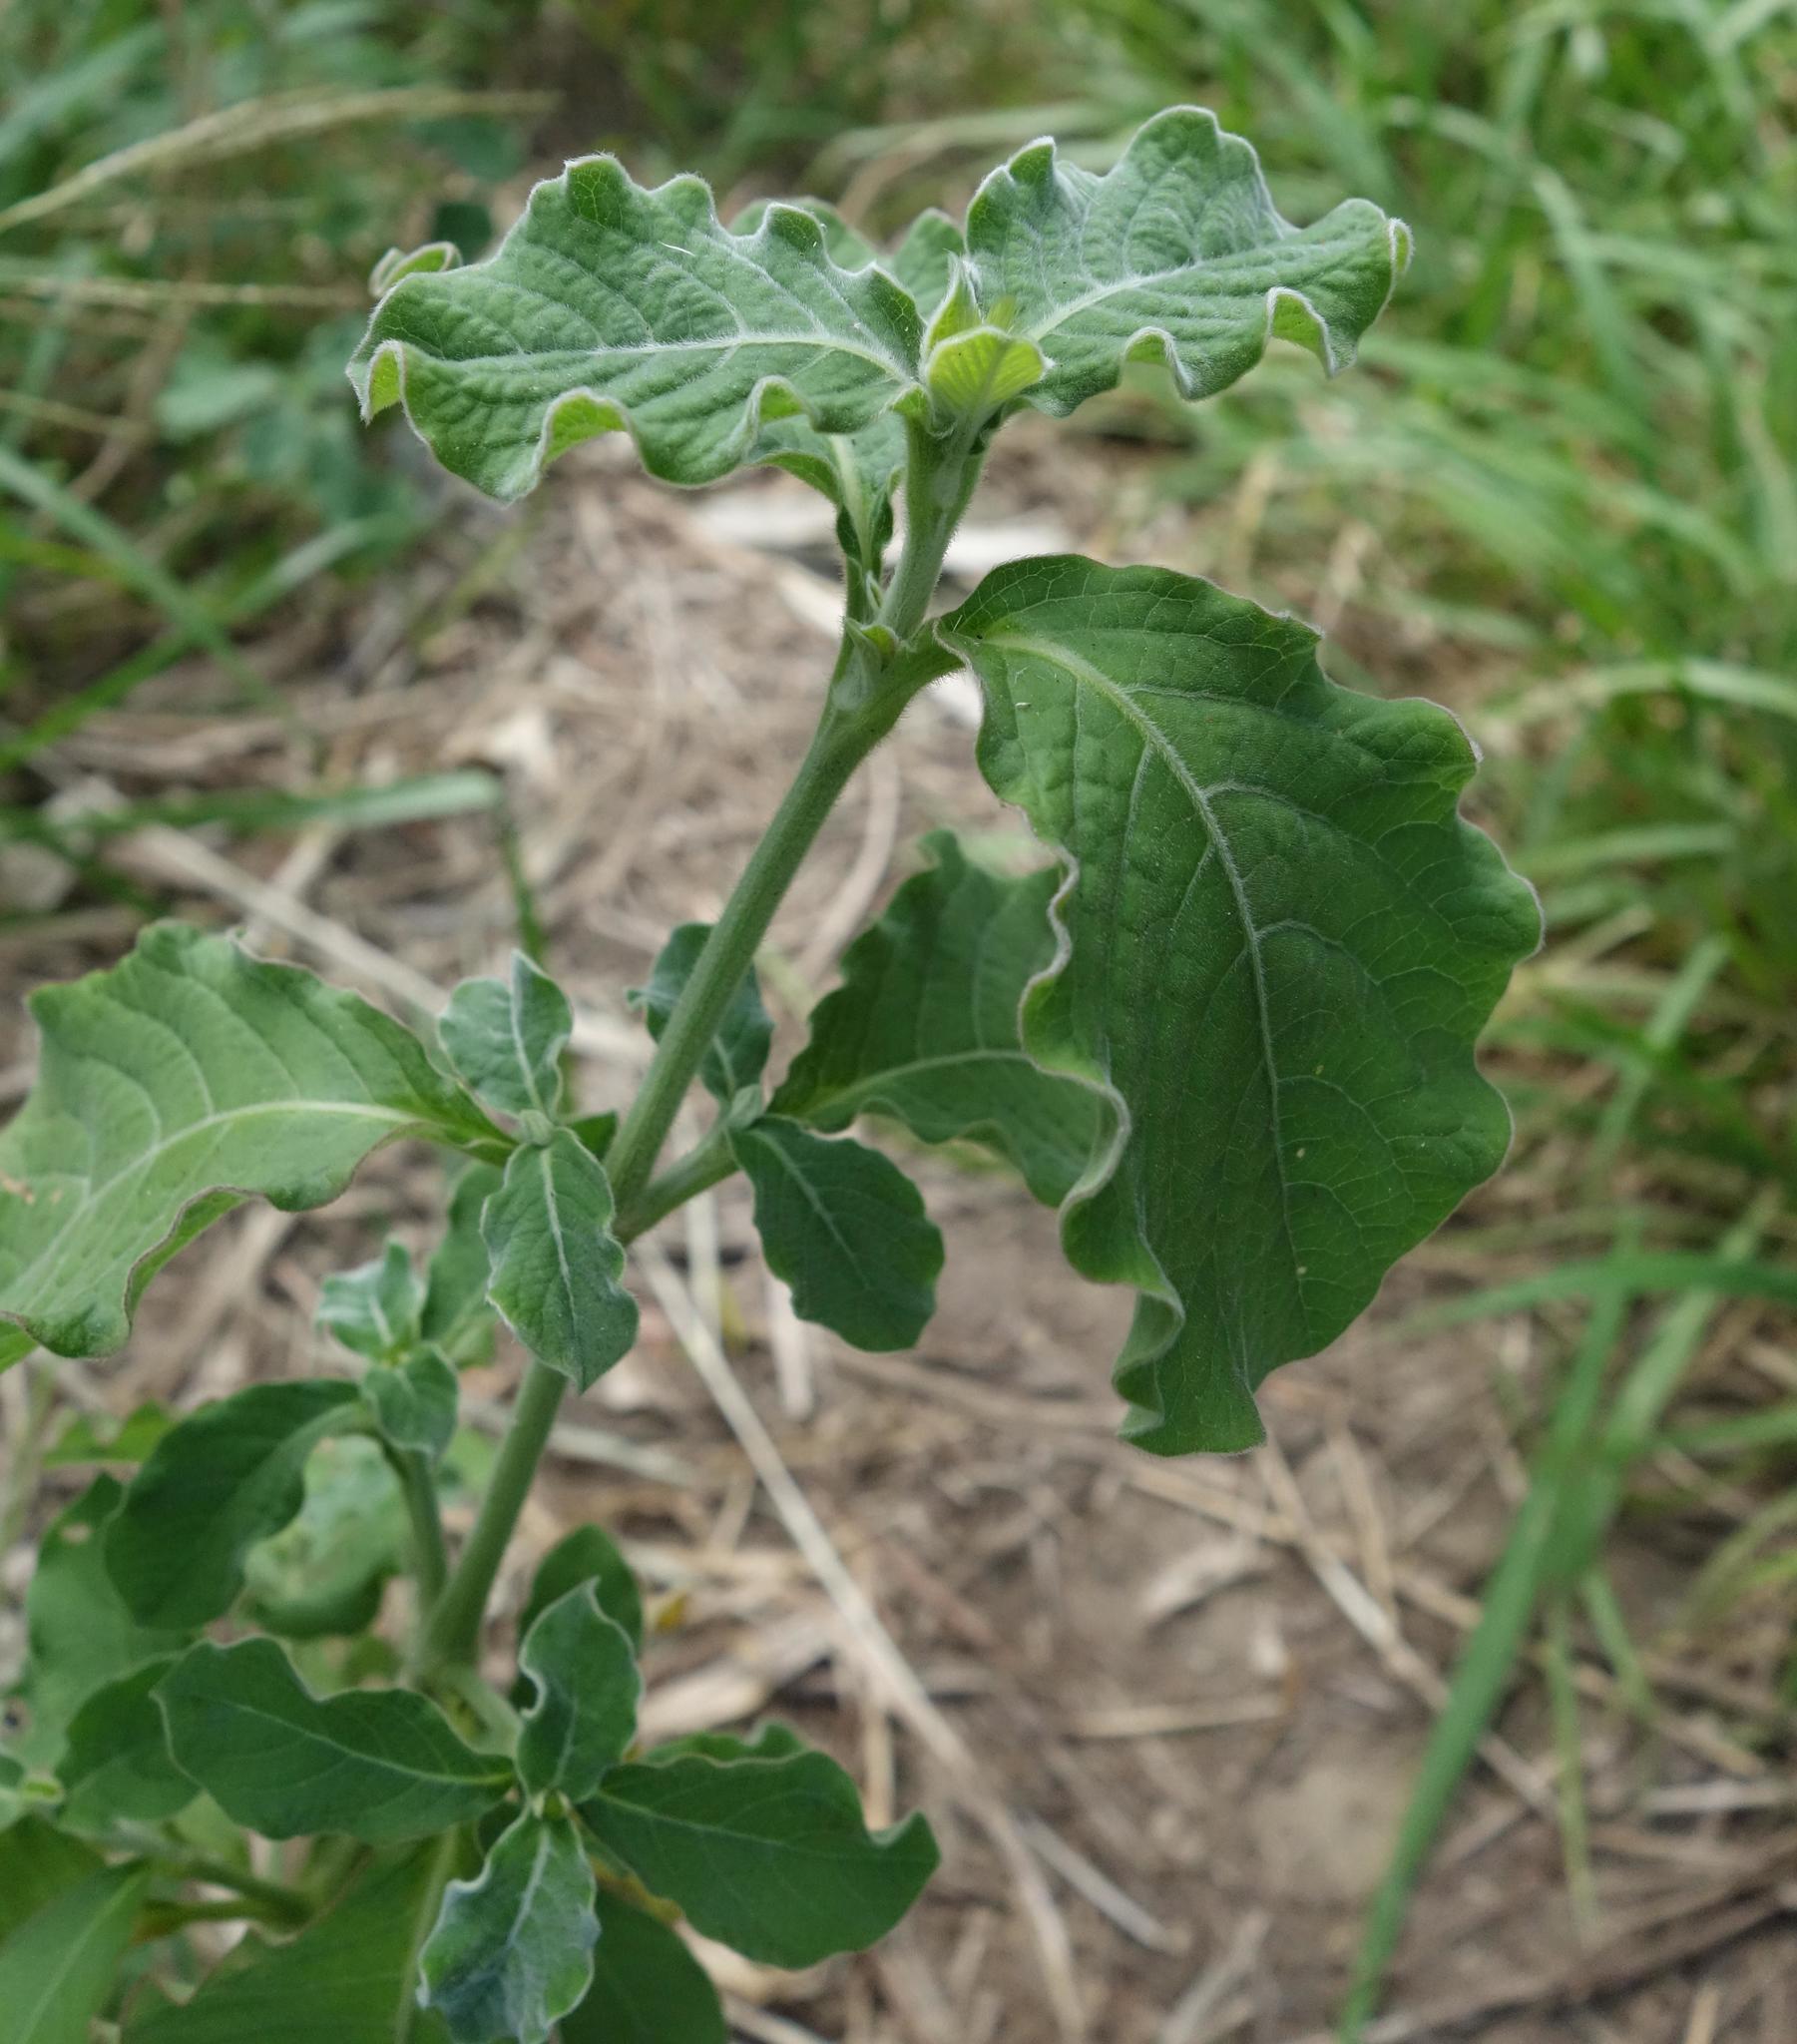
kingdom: Plantae
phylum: Tracheophyta
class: Magnoliopsida
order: Caryophyllales
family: Amaranthaceae
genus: Achyranthes
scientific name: Achyranthes aspera
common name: Devil's horsewhip
